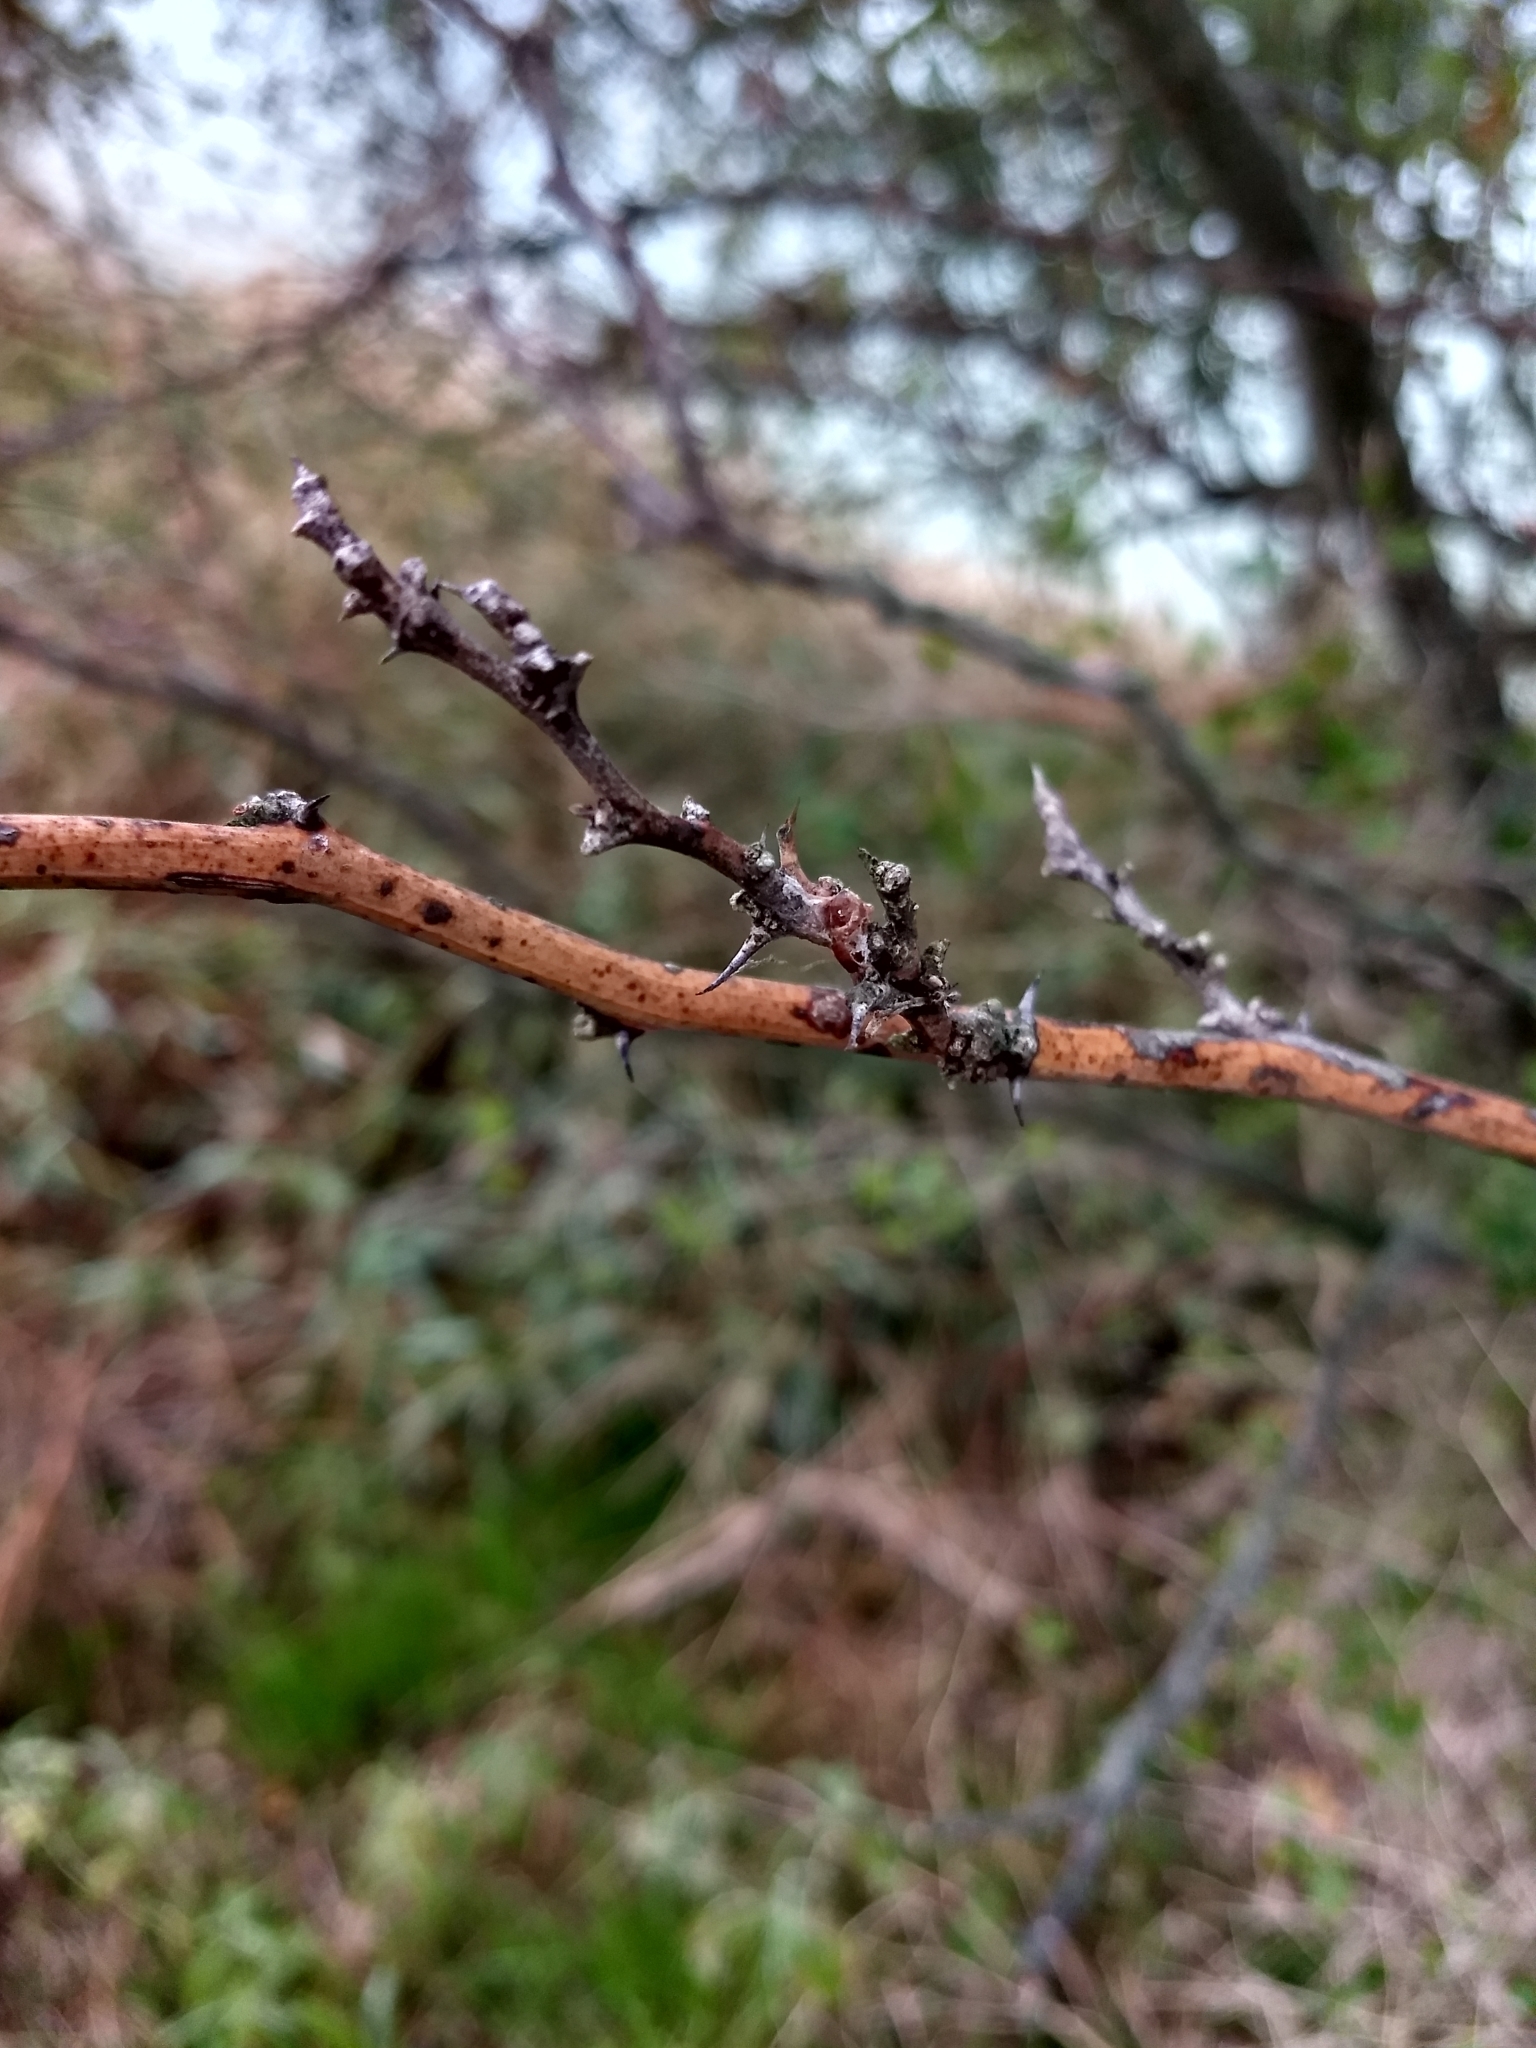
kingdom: Plantae
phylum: Tracheophyta
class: Magnoliopsida
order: Fabales
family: Fabaceae
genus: Parkinsonia
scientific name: Parkinsonia aculeata
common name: Jerusalem thorn
